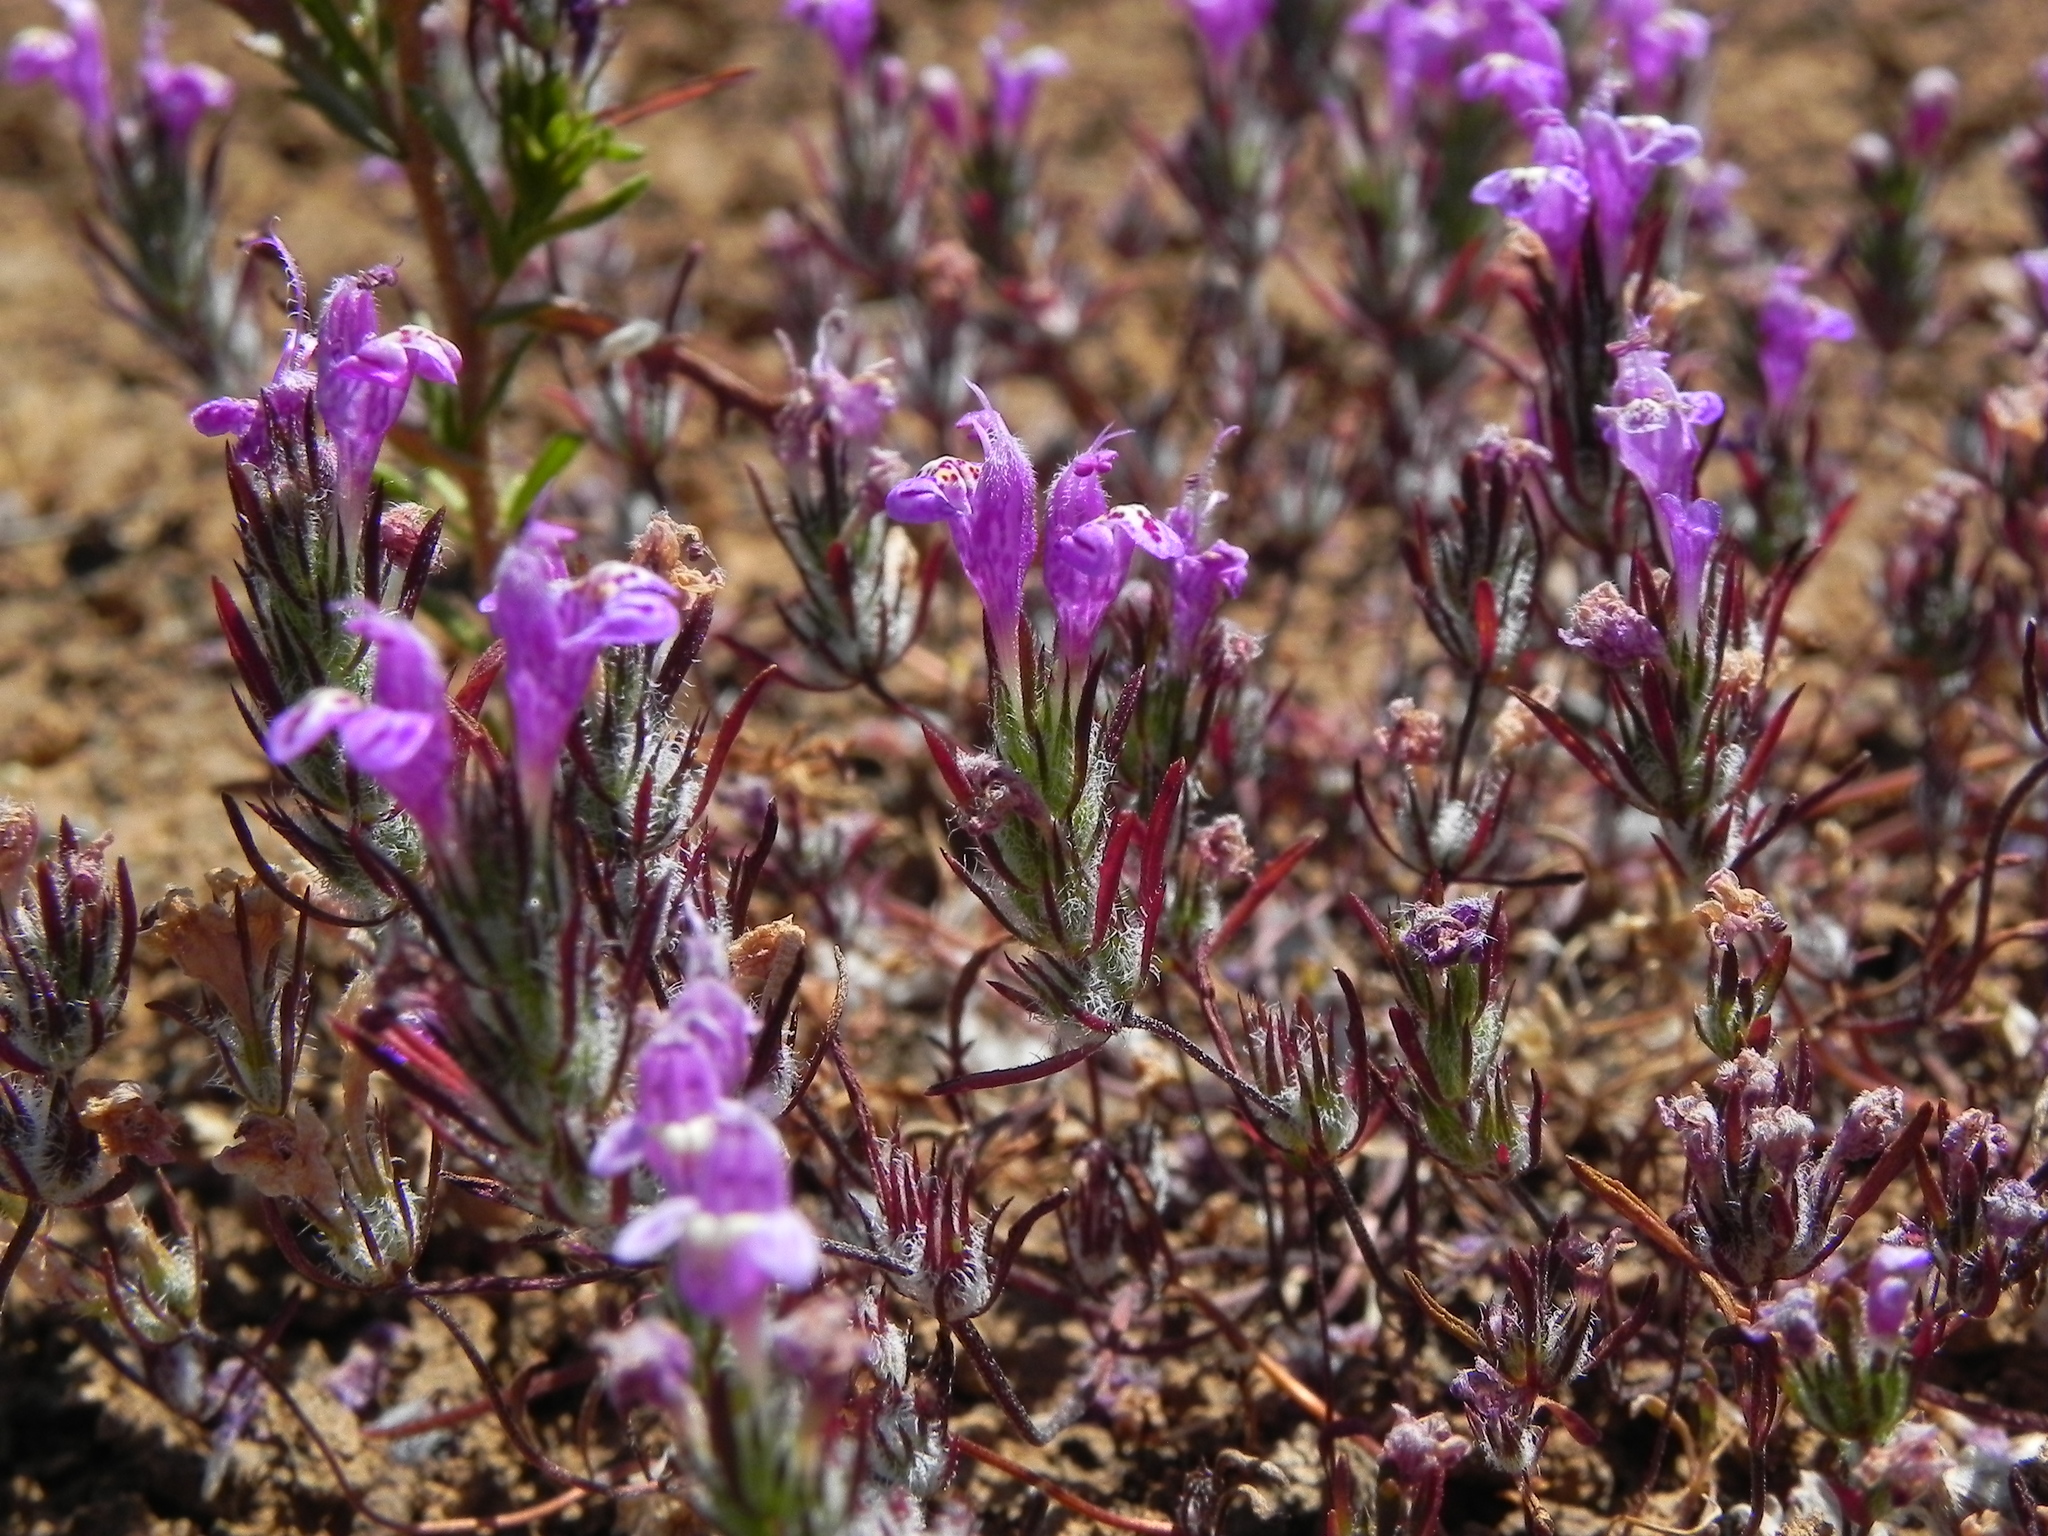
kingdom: Plantae
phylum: Tracheophyta
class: Magnoliopsida
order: Lamiales
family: Lamiaceae
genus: Pogogyne
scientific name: Pogogyne abramsii
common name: San diego mesa-mint
